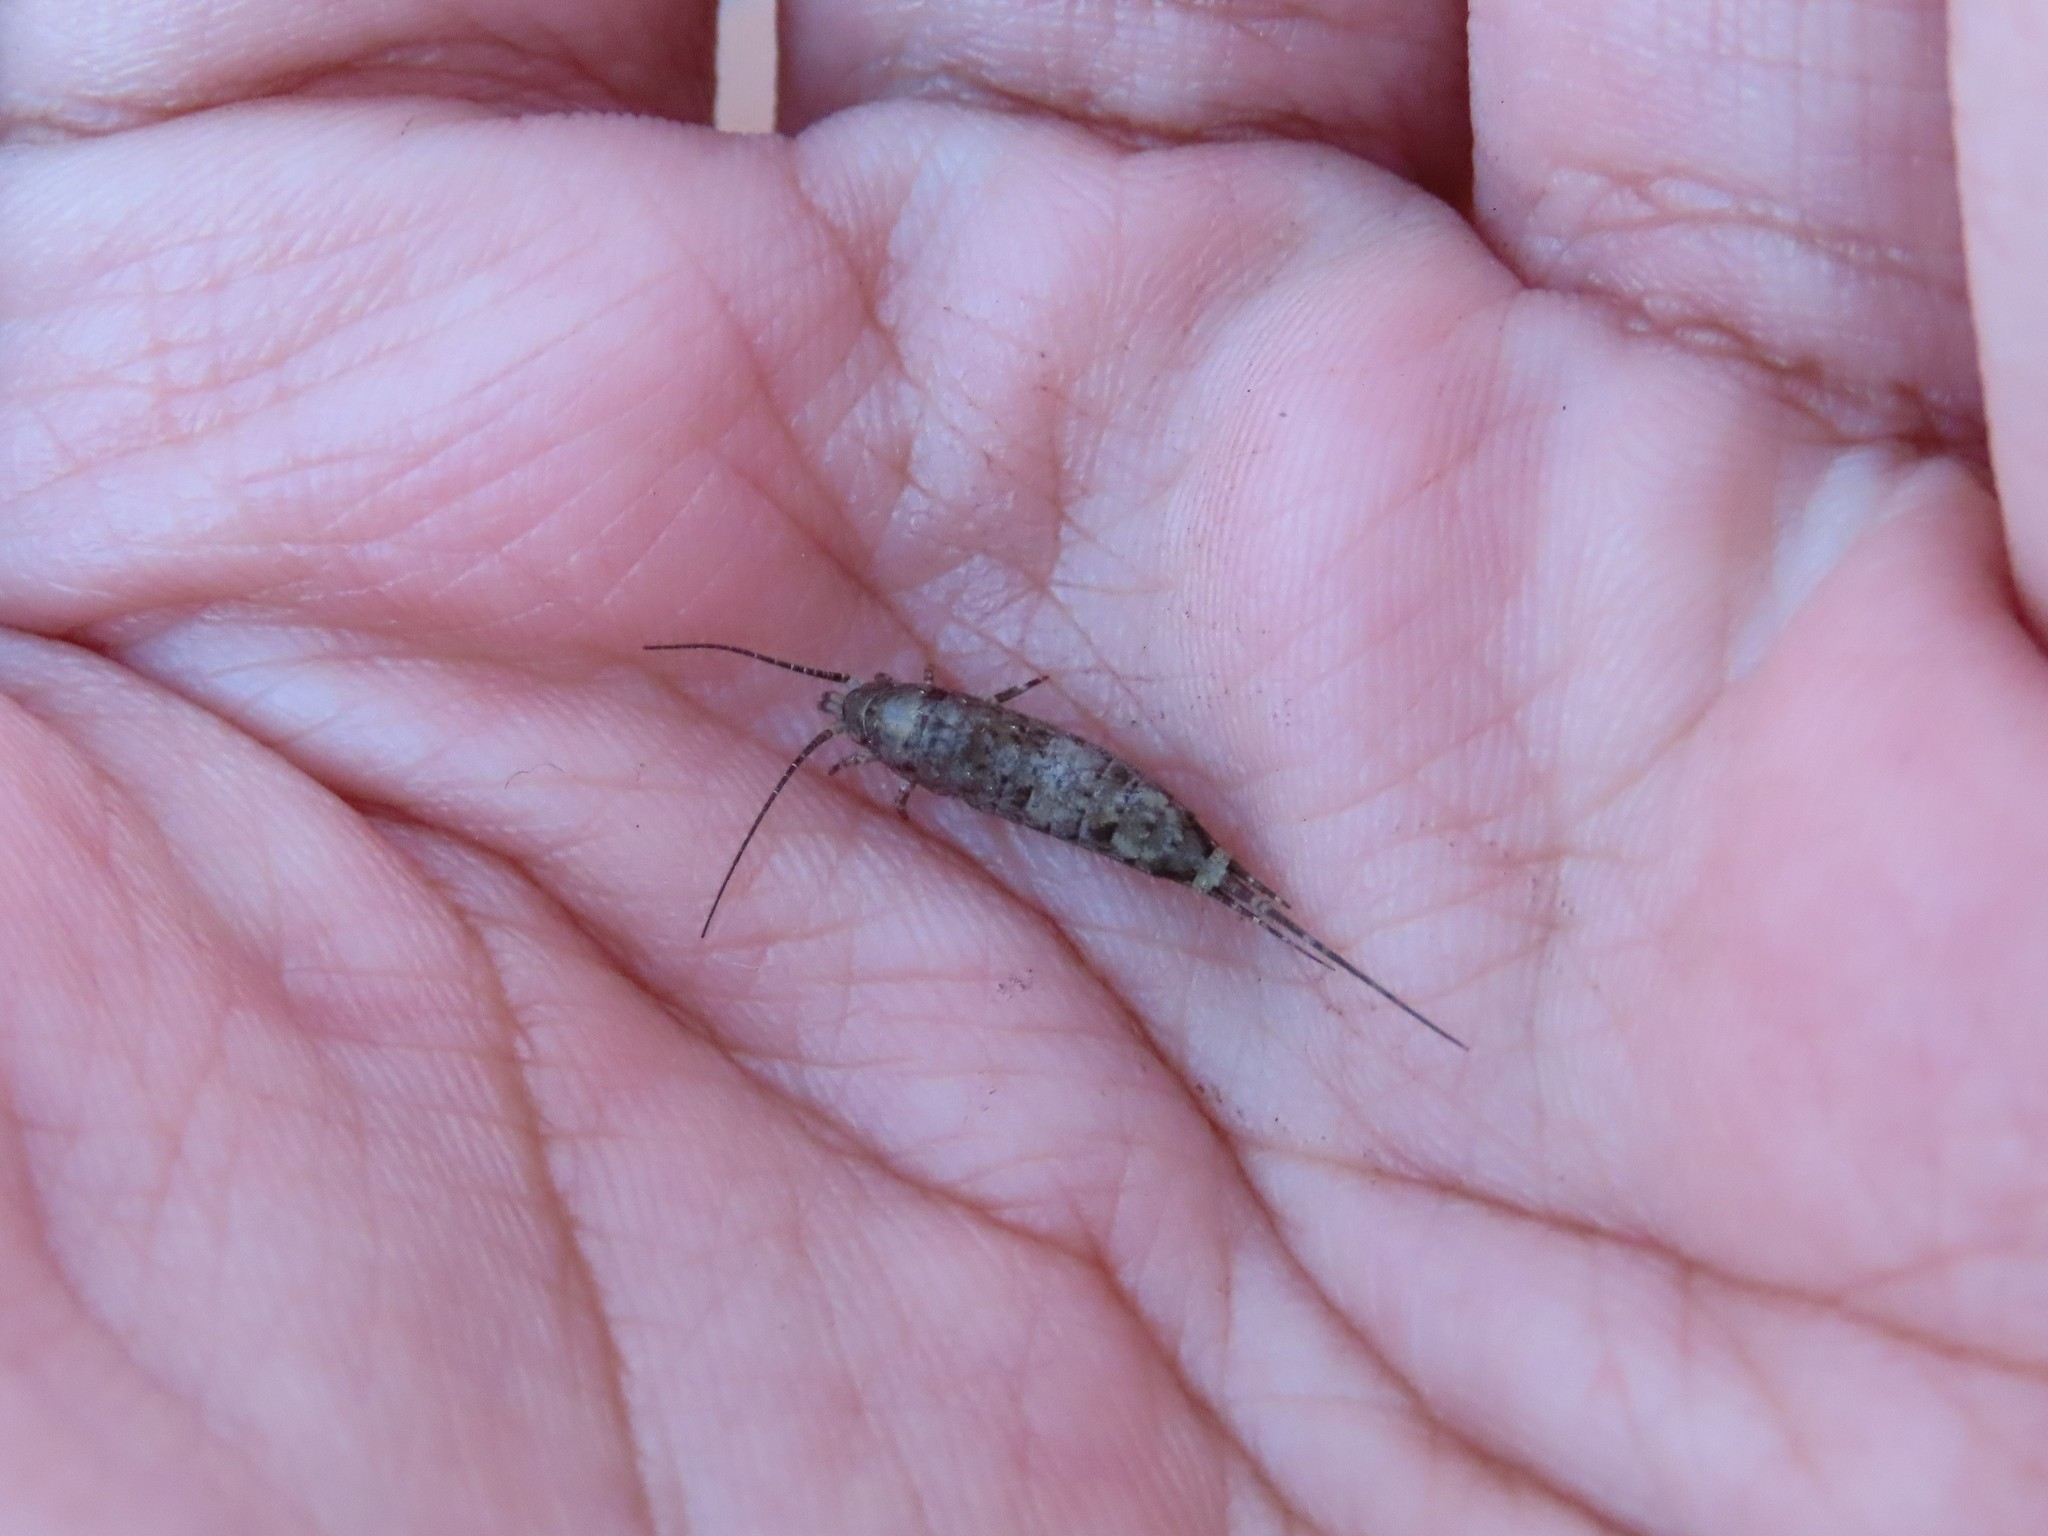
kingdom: Animalia
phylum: Arthropoda
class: Insecta
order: Archaeognatha
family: Machilidae
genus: Trigoniophthalmus
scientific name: Trigoniophthalmus alternatus
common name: Jumping bristletail
